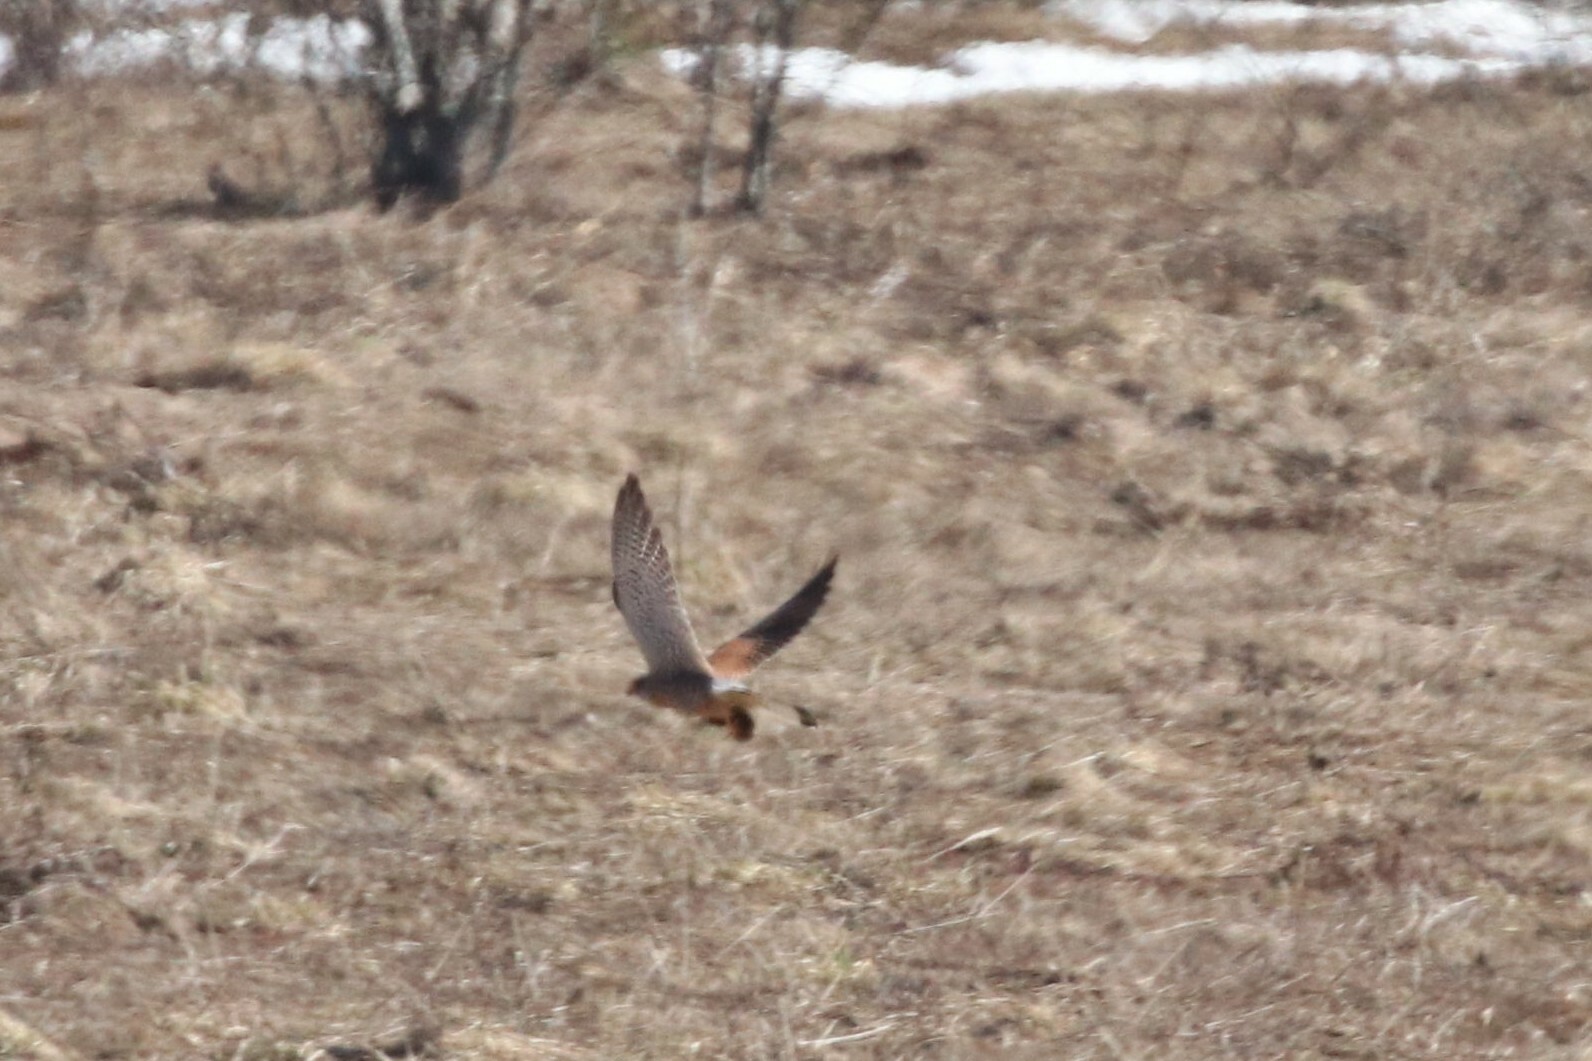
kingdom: Animalia
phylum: Chordata
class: Aves
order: Falconiformes
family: Falconidae
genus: Falco
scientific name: Falco tinnunculus
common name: Common kestrel
